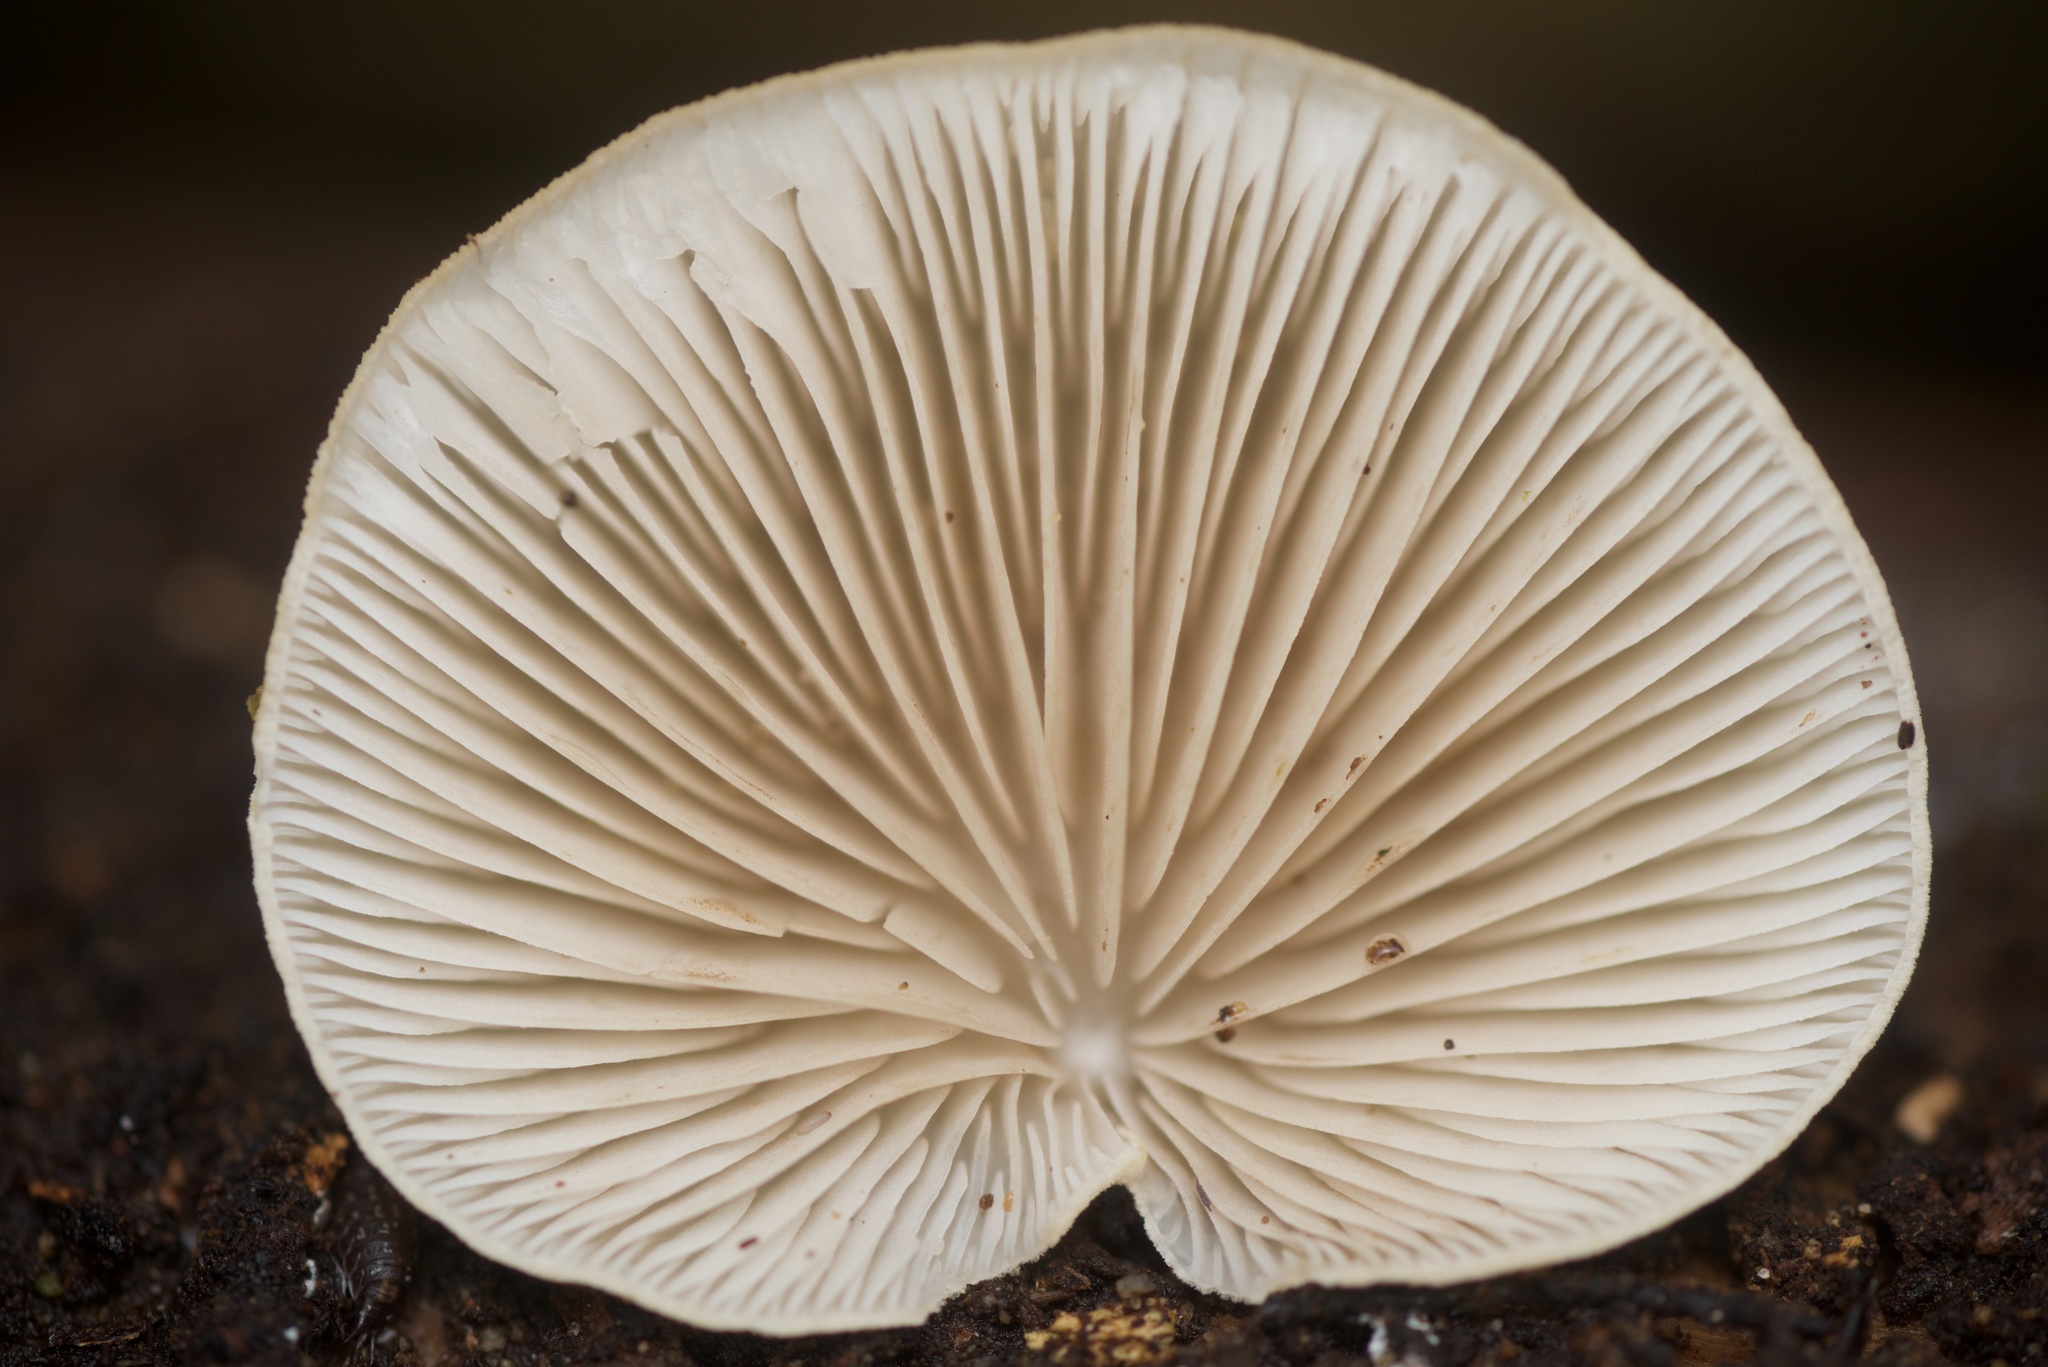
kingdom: Fungi
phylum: Basidiomycota
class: Agaricomycetes
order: Agaricales
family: Tricholomataceae
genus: Conchomyces
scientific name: Conchomyces bursiformis
